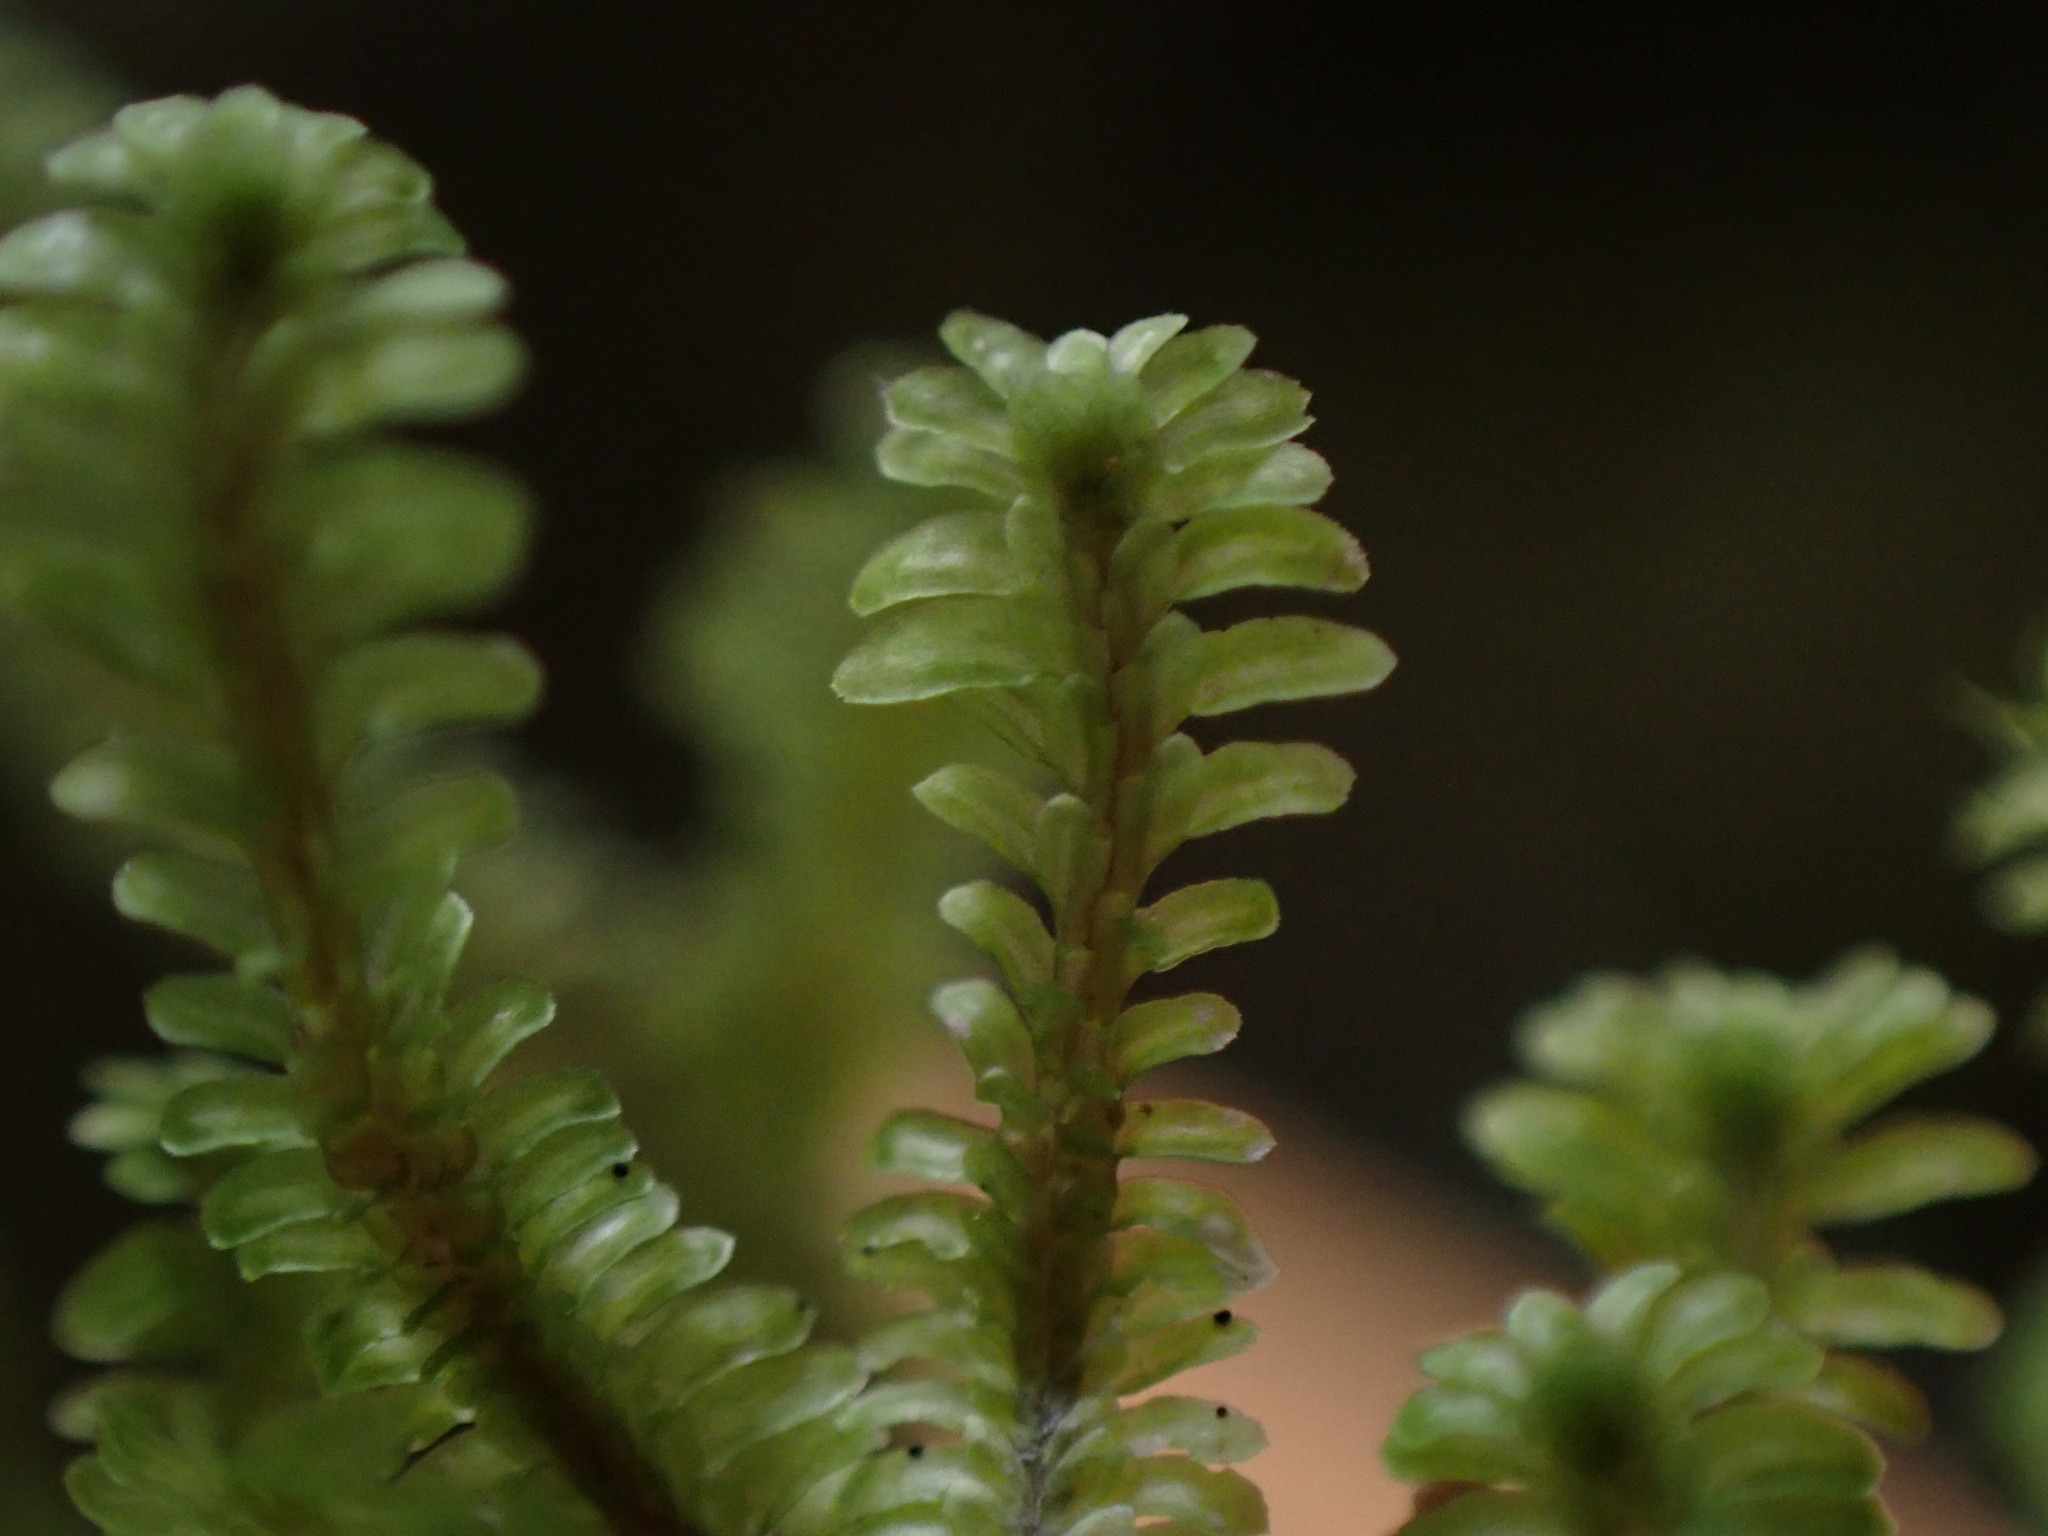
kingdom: Plantae
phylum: Marchantiophyta
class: Jungermanniopsida
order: Jungermanniales
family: Scapaniaceae
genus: Diplophyllum
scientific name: Diplophyllum albicans
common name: White earwort
